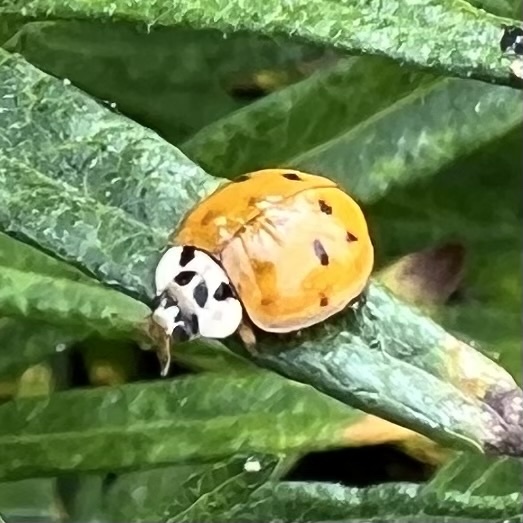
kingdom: Animalia
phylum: Arthropoda
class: Insecta
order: Coleoptera
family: Coccinellidae
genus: Harmonia
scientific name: Harmonia axyridis
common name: Harlequin ladybird
